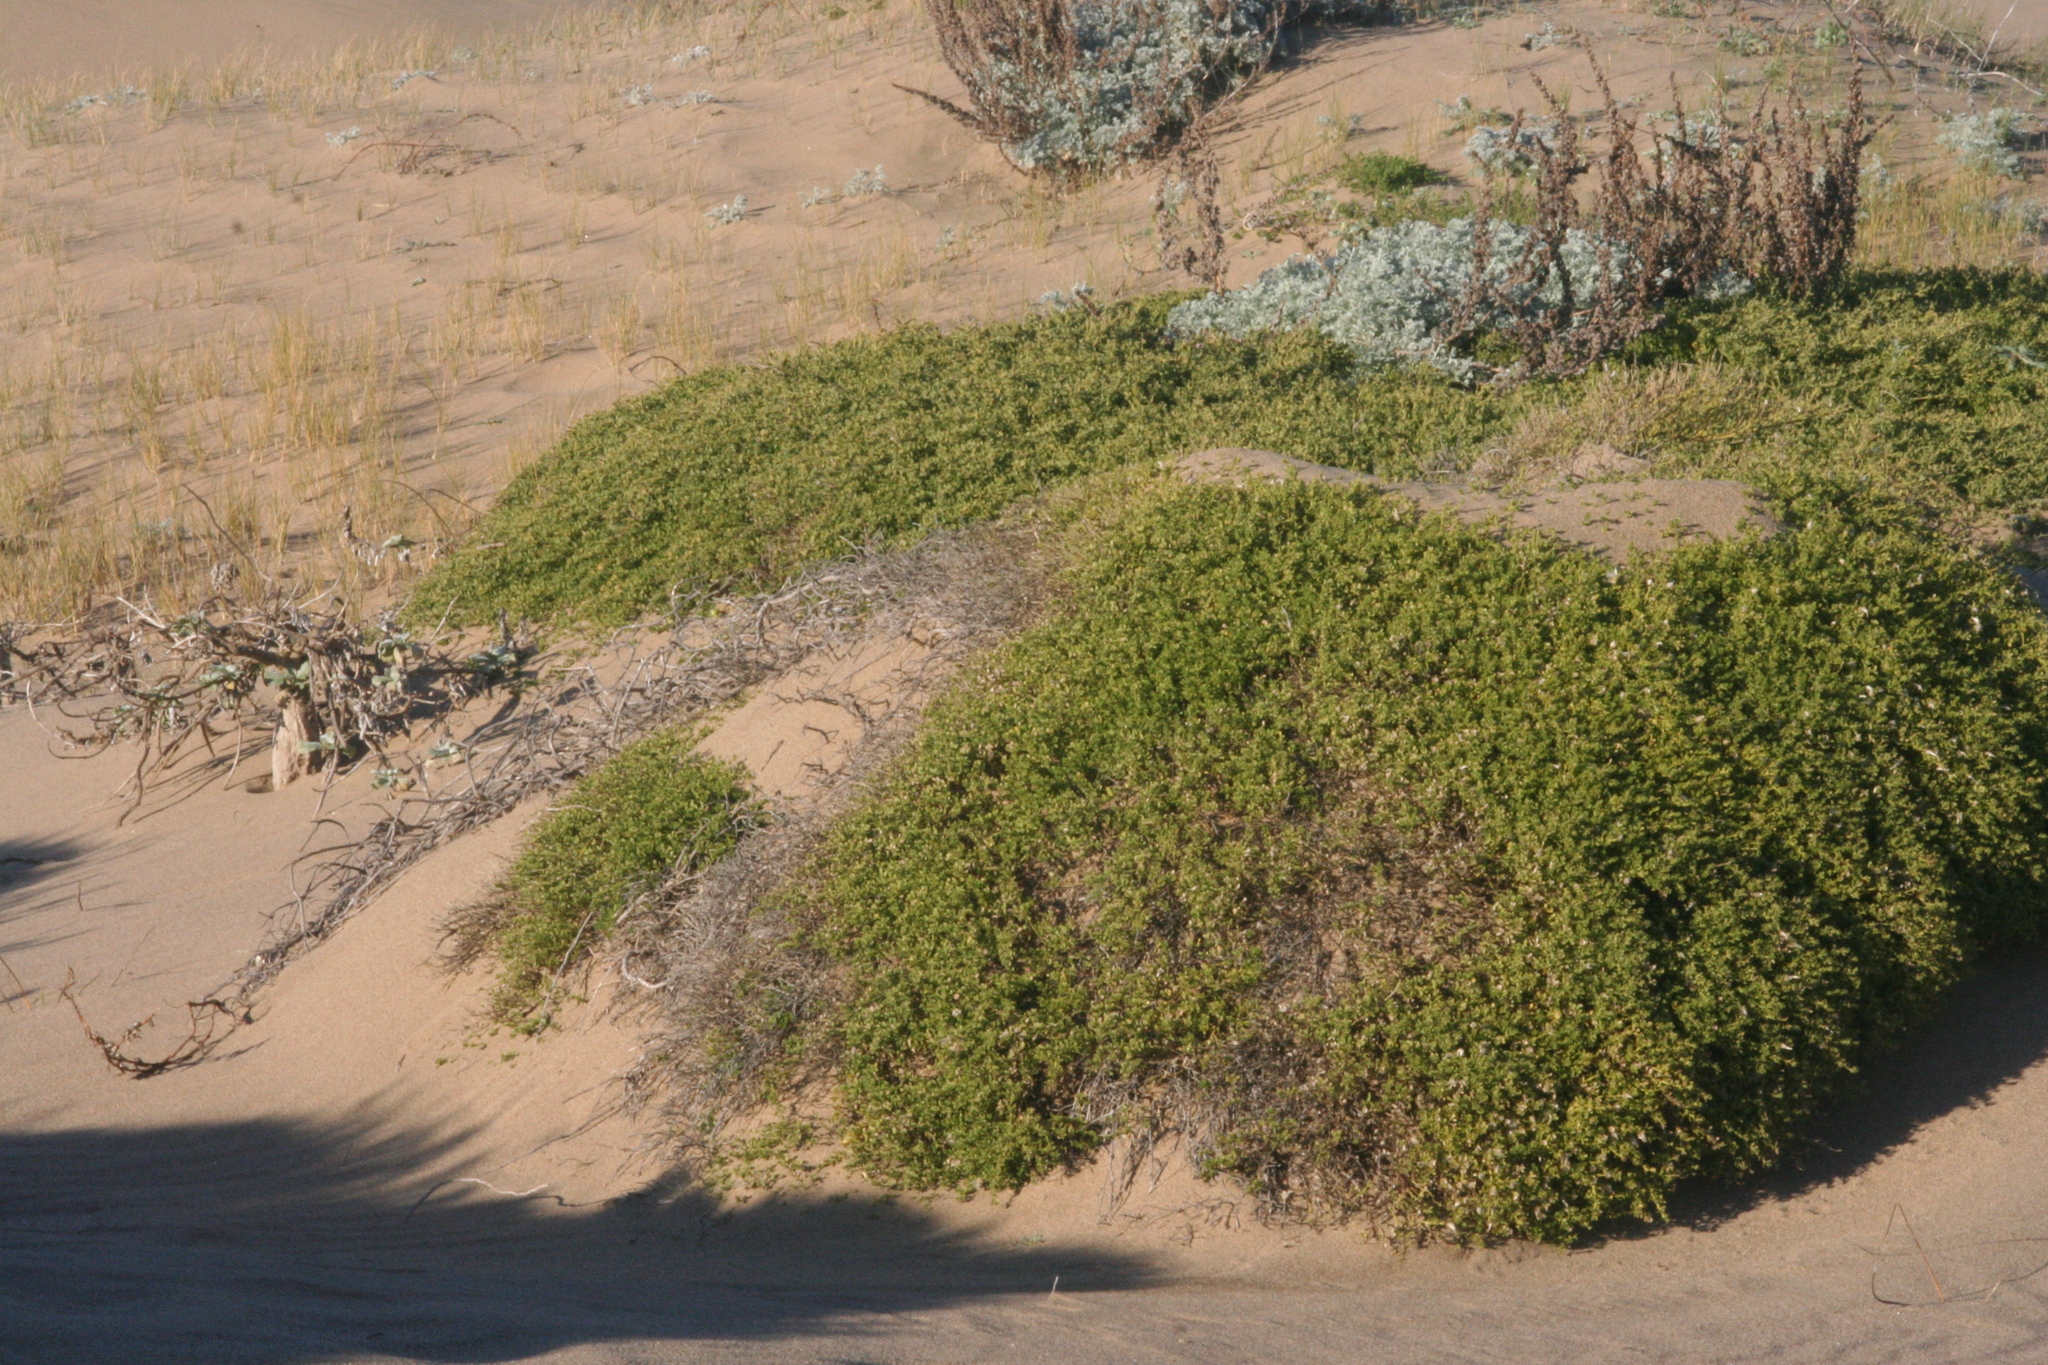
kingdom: Plantae
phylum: Tracheophyta
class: Magnoliopsida
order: Asterales
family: Asteraceae
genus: Baccharis
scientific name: Baccharis pilularis
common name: Coyotebrush
